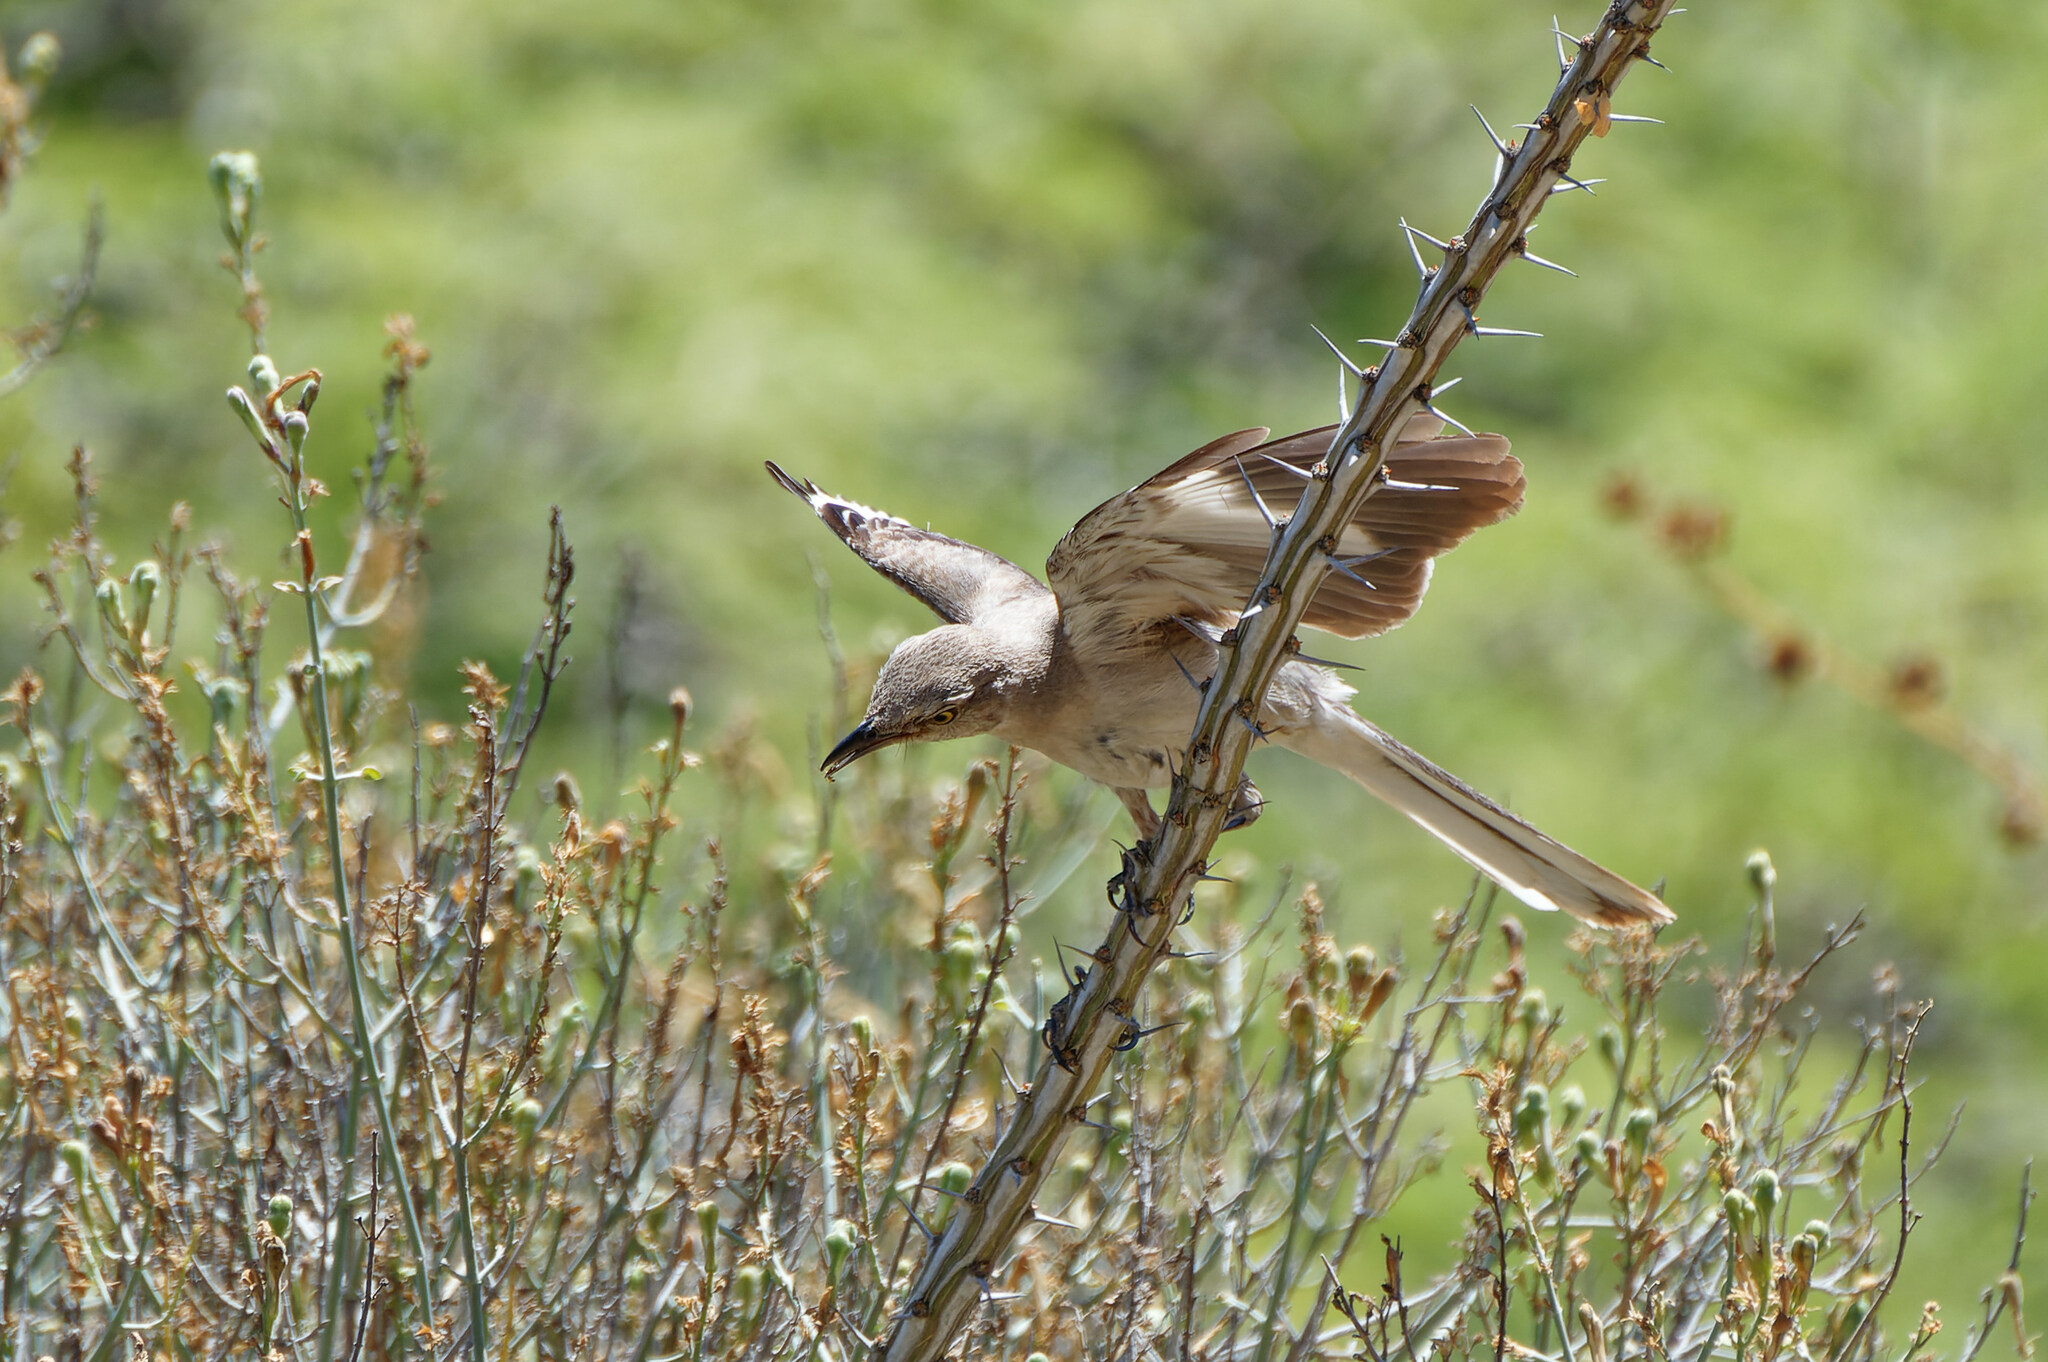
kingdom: Animalia
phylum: Chordata
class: Aves
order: Passeriformes
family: Mimidae
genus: Mimus
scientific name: Mimus polyglottos
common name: Northern mockingbird
